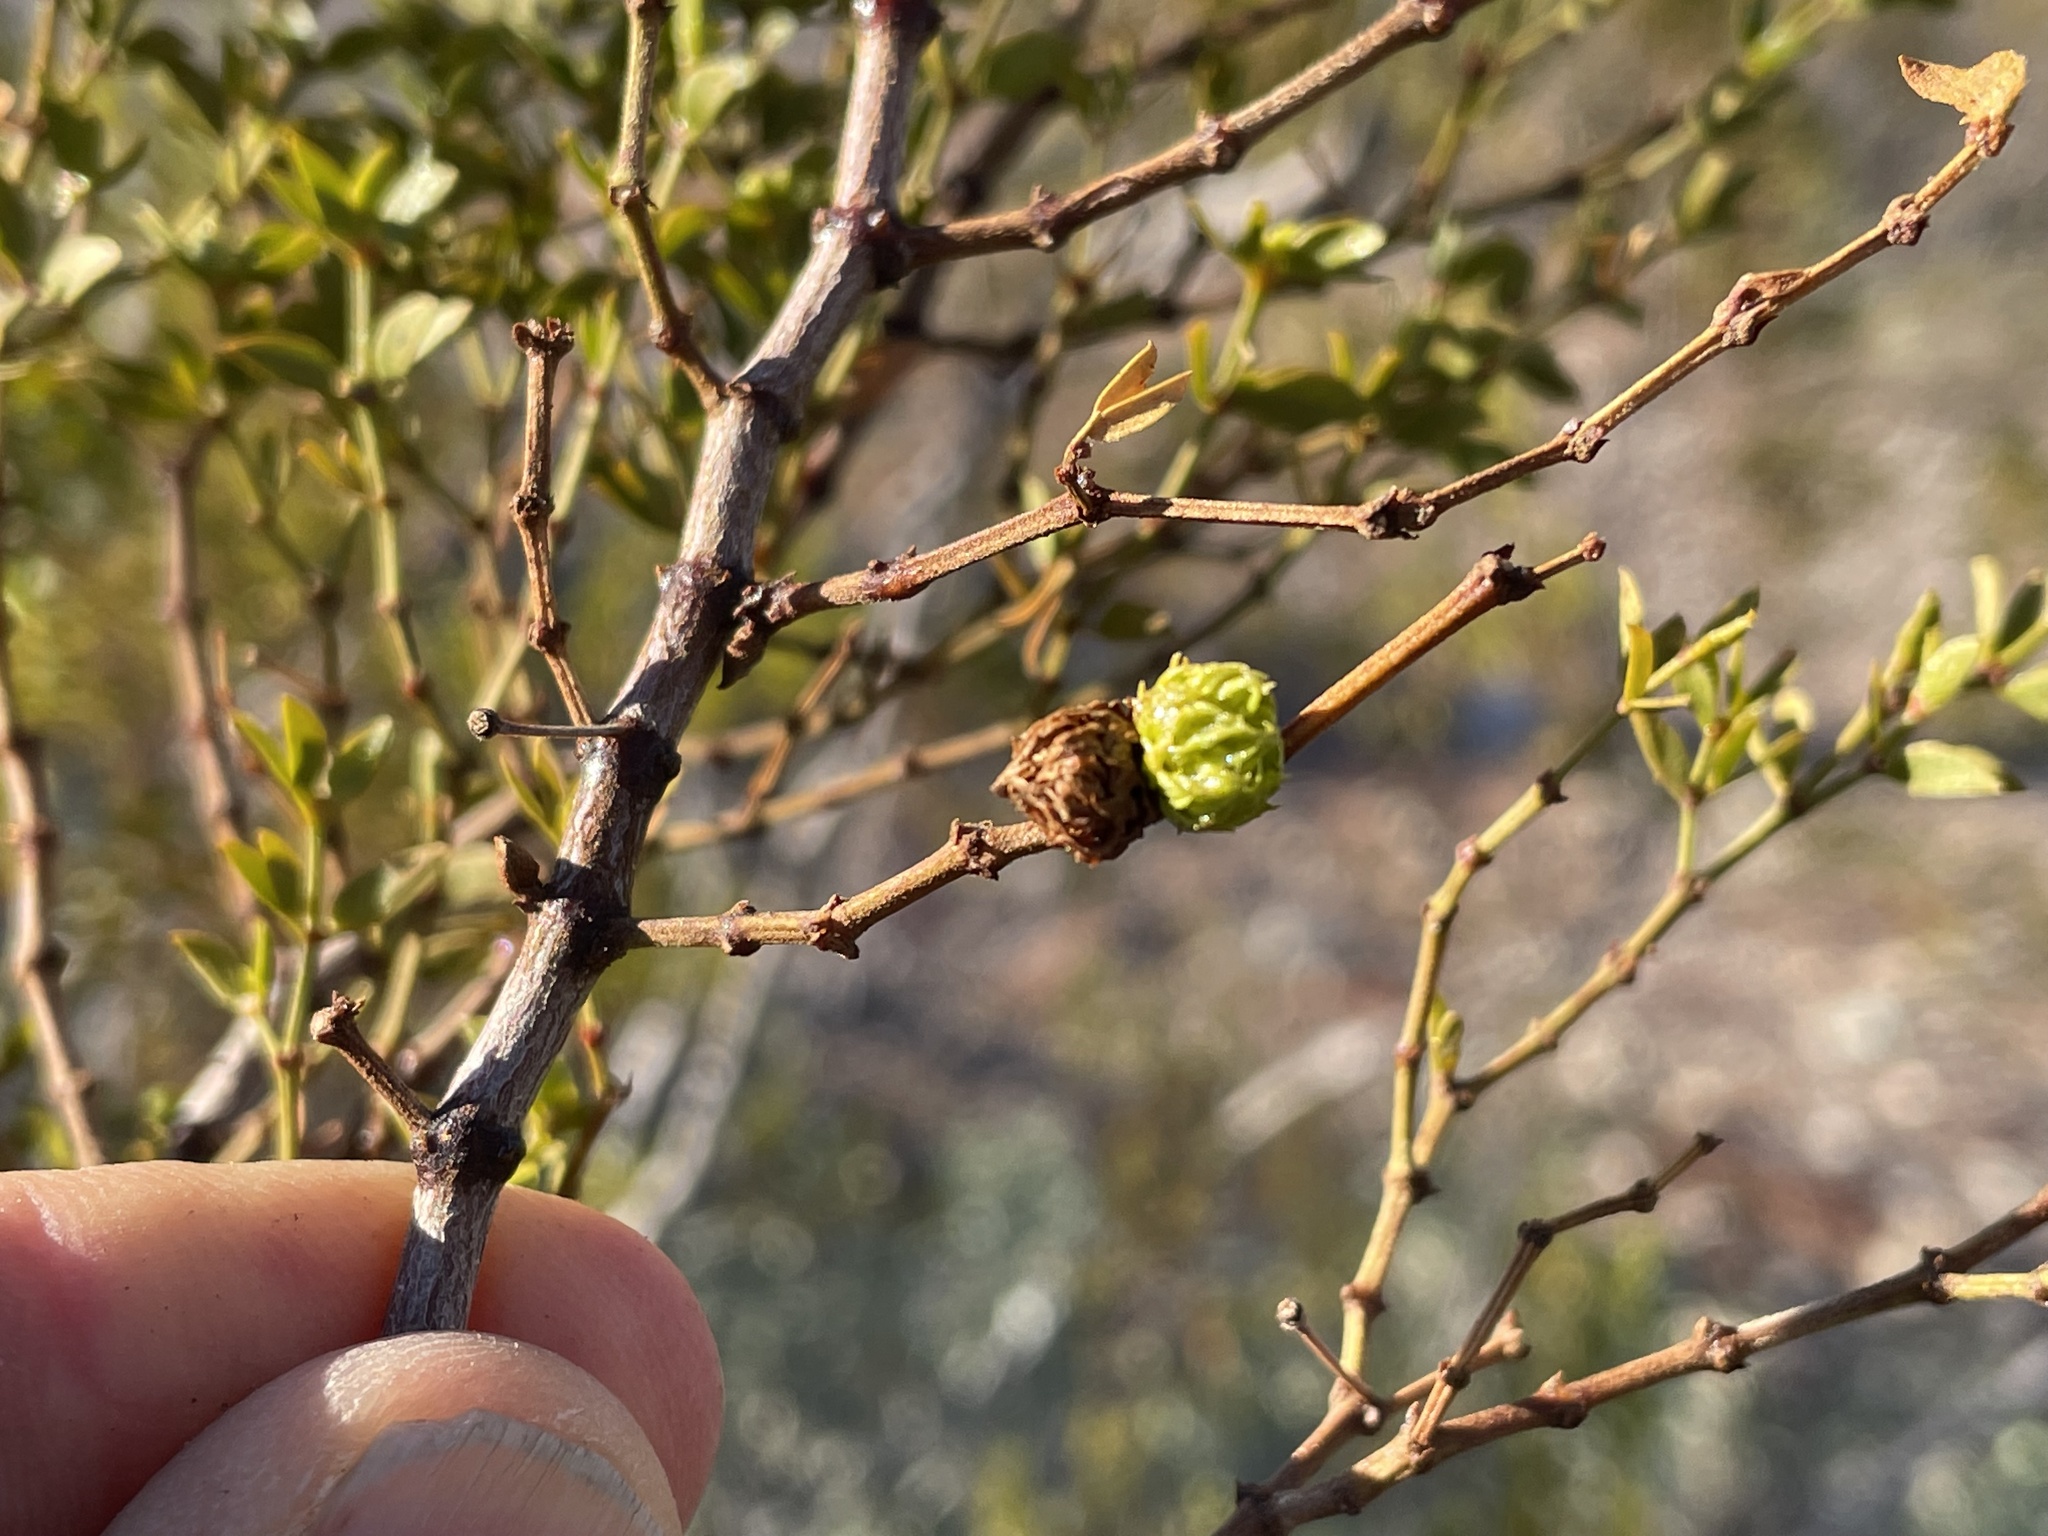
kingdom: Animalia
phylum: Arthropoda
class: Insecta
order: Diptera
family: Cecidomyiidae
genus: Asphondylia
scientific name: Asphondylia foliosa
